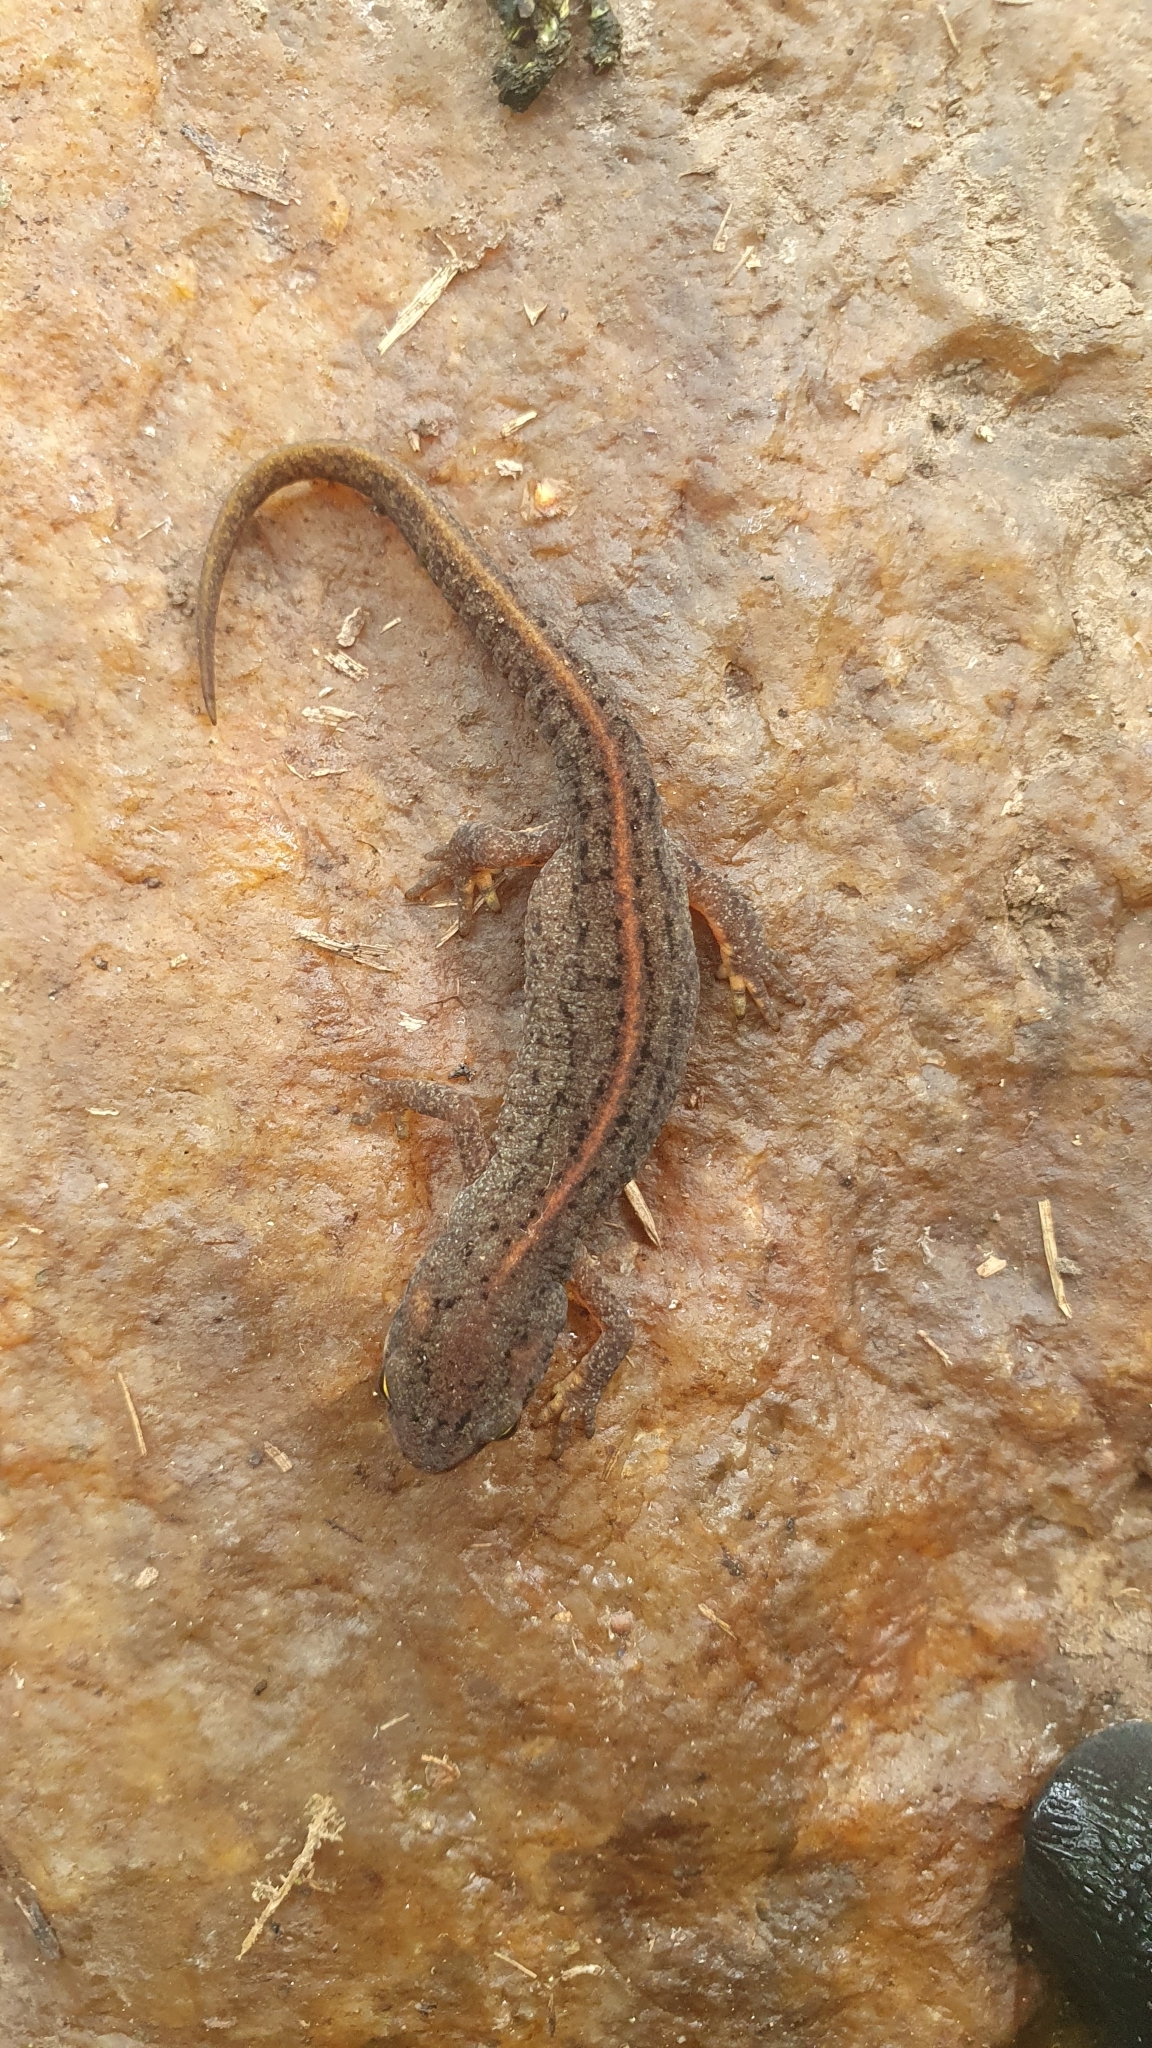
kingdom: Animalia
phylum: Chordata
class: Amphibia
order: Caudata
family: Salamandridae
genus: Lissotriton
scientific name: Lissotriton boscai
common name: Bosca's newt
